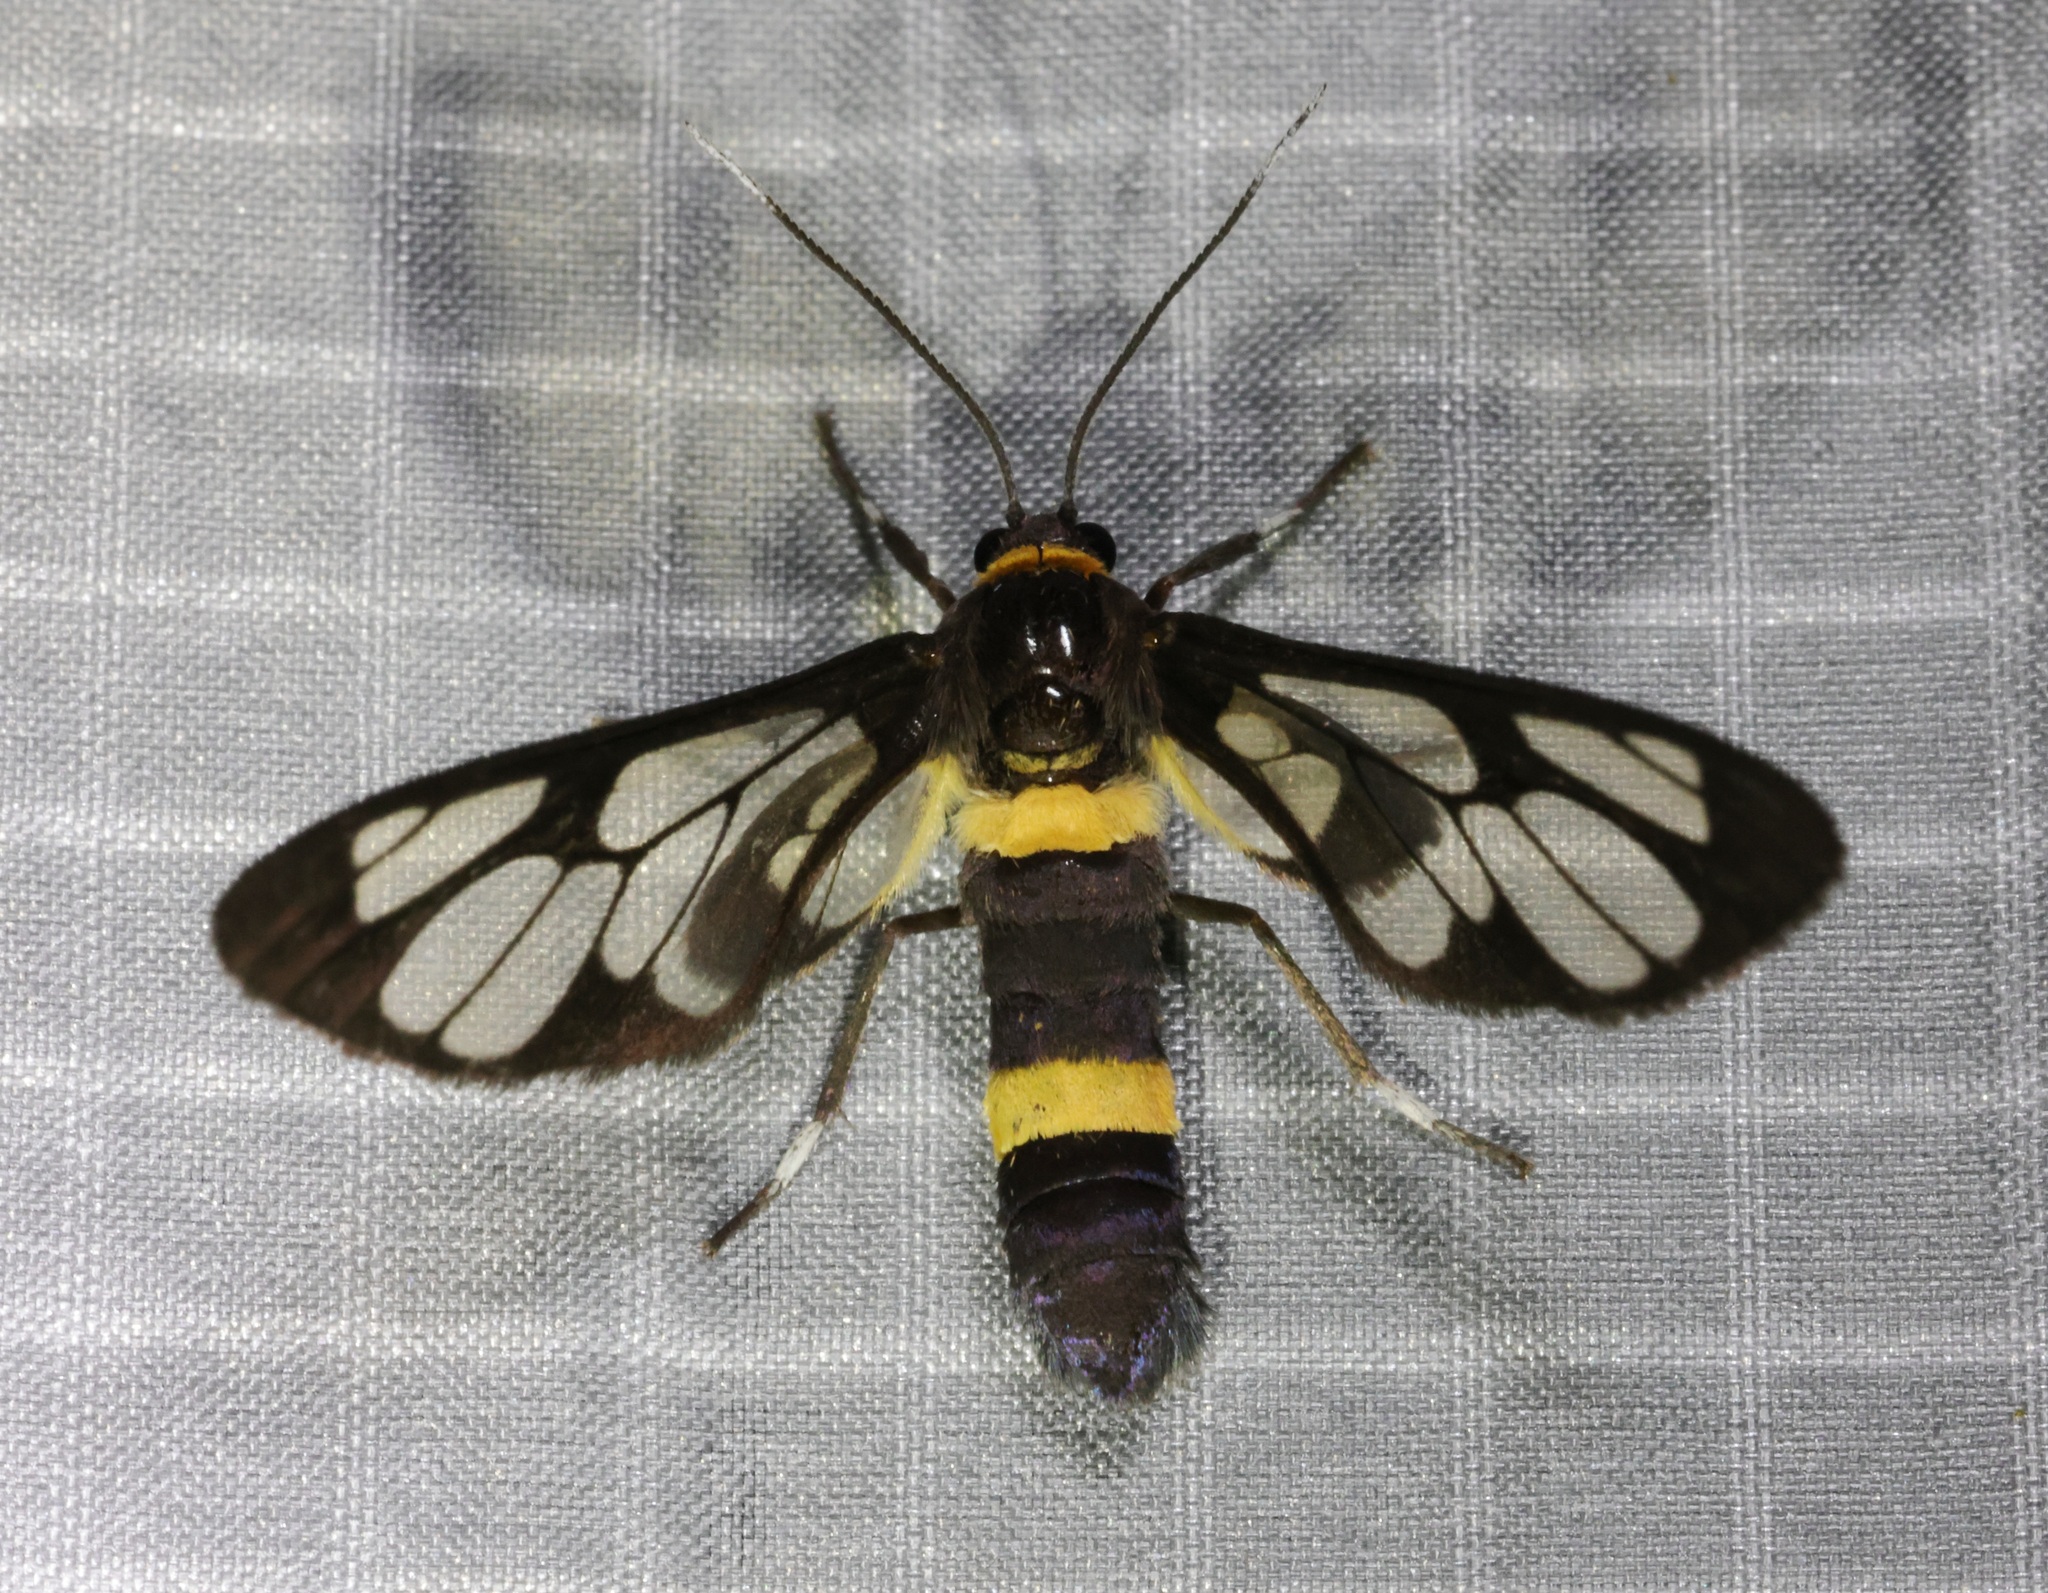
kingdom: Animalia
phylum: Arthropoda
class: Insecta
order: Lepidoptera
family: Erebidae
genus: Syntomoides
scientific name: Syntomoides imaon
